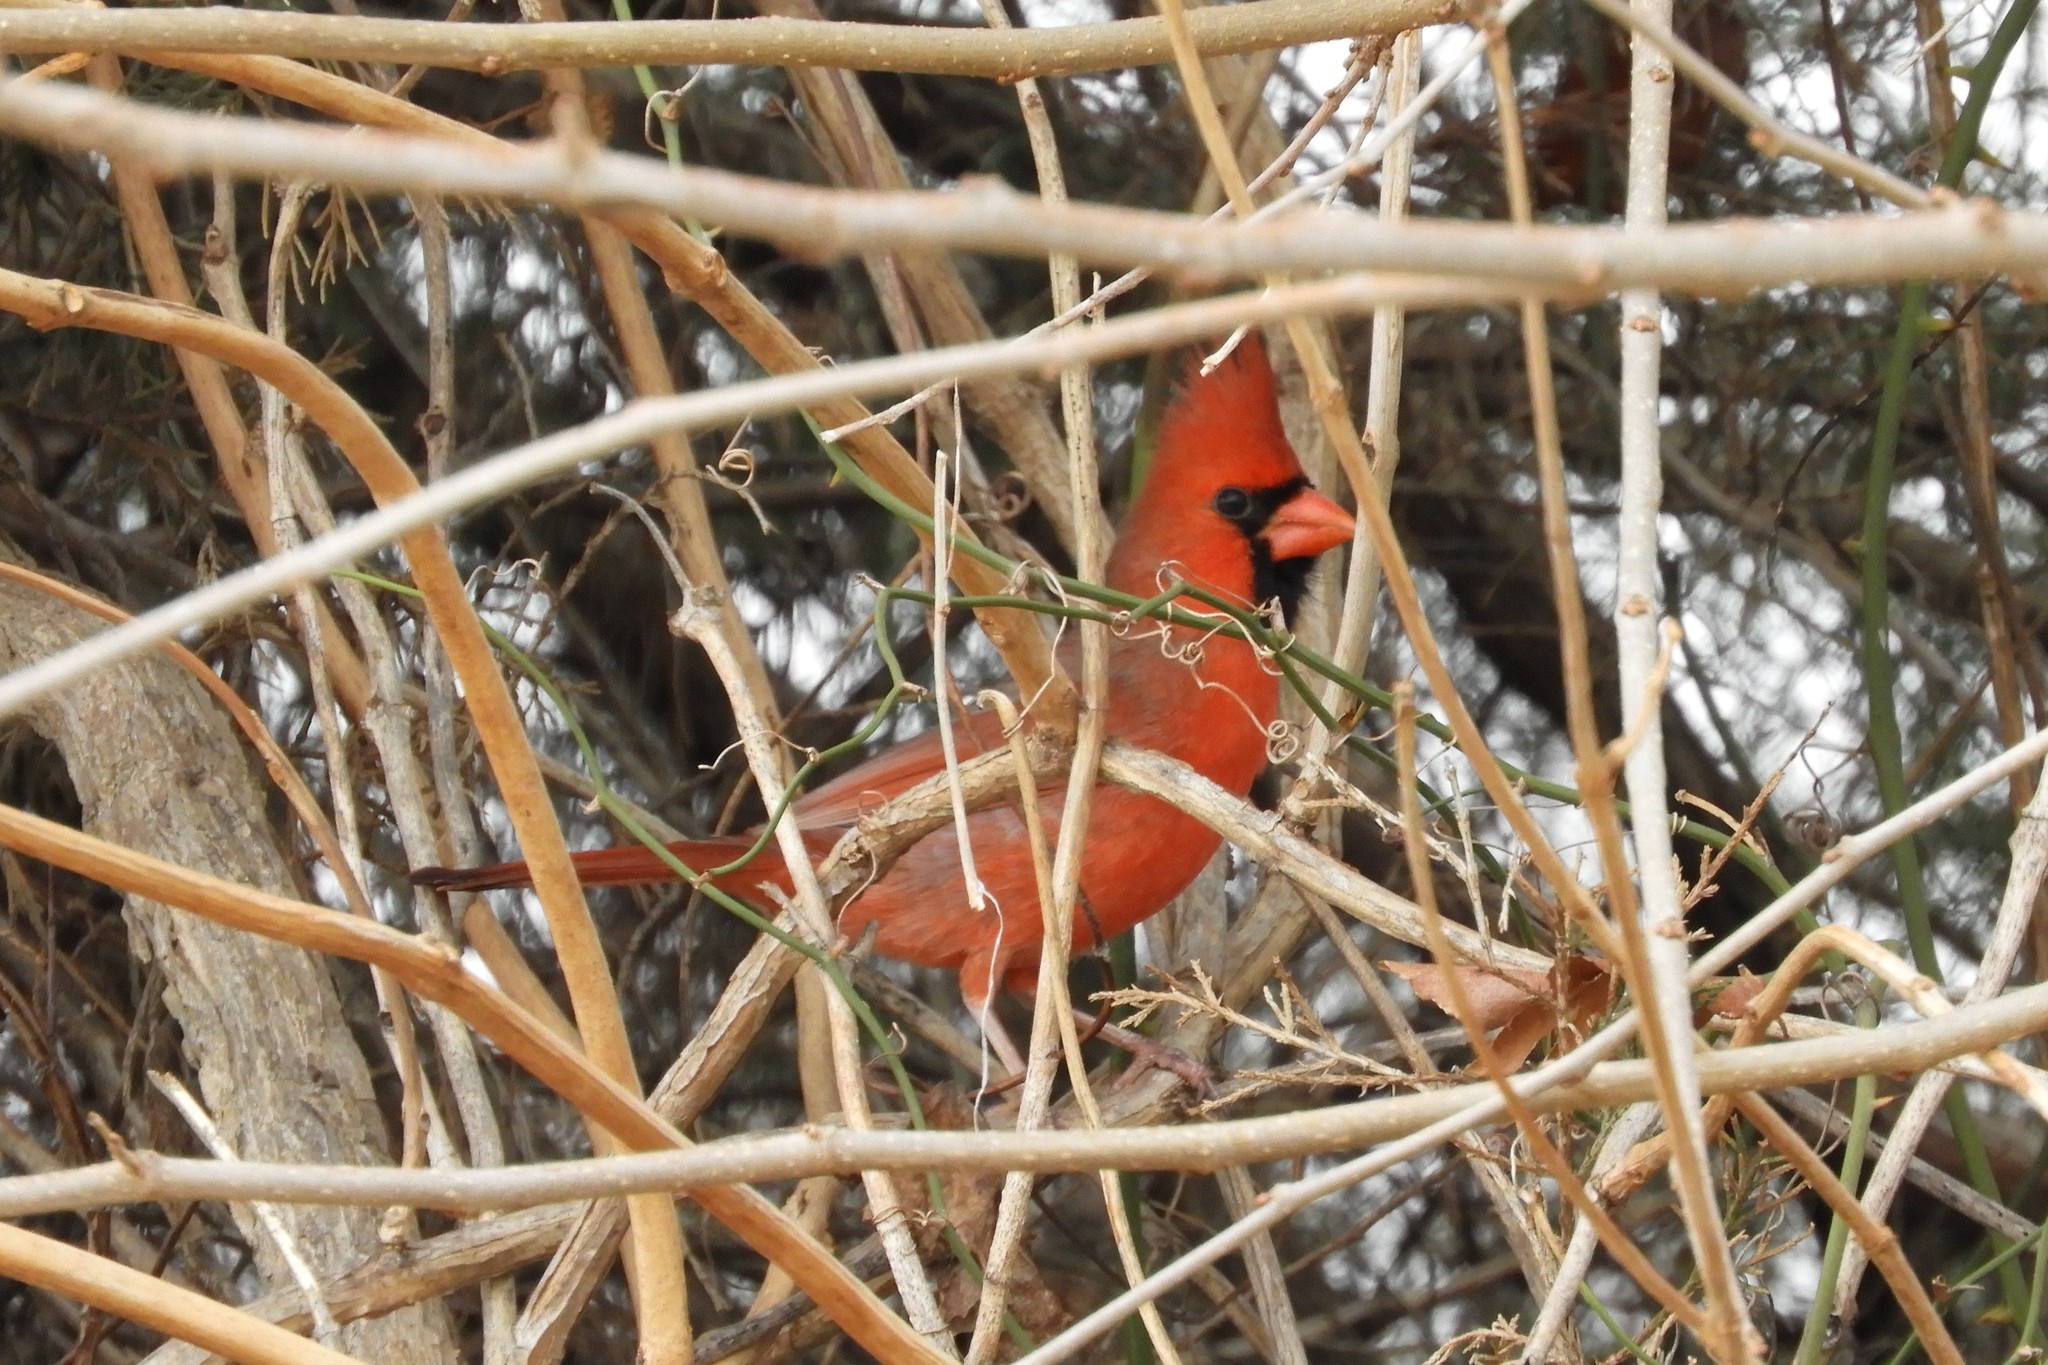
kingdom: Animalia
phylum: Chordata
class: Aves
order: Passeriformes
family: Cardinalidae
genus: Cardinalis
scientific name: Cardinalis cardinalis
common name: Northern cardinal
